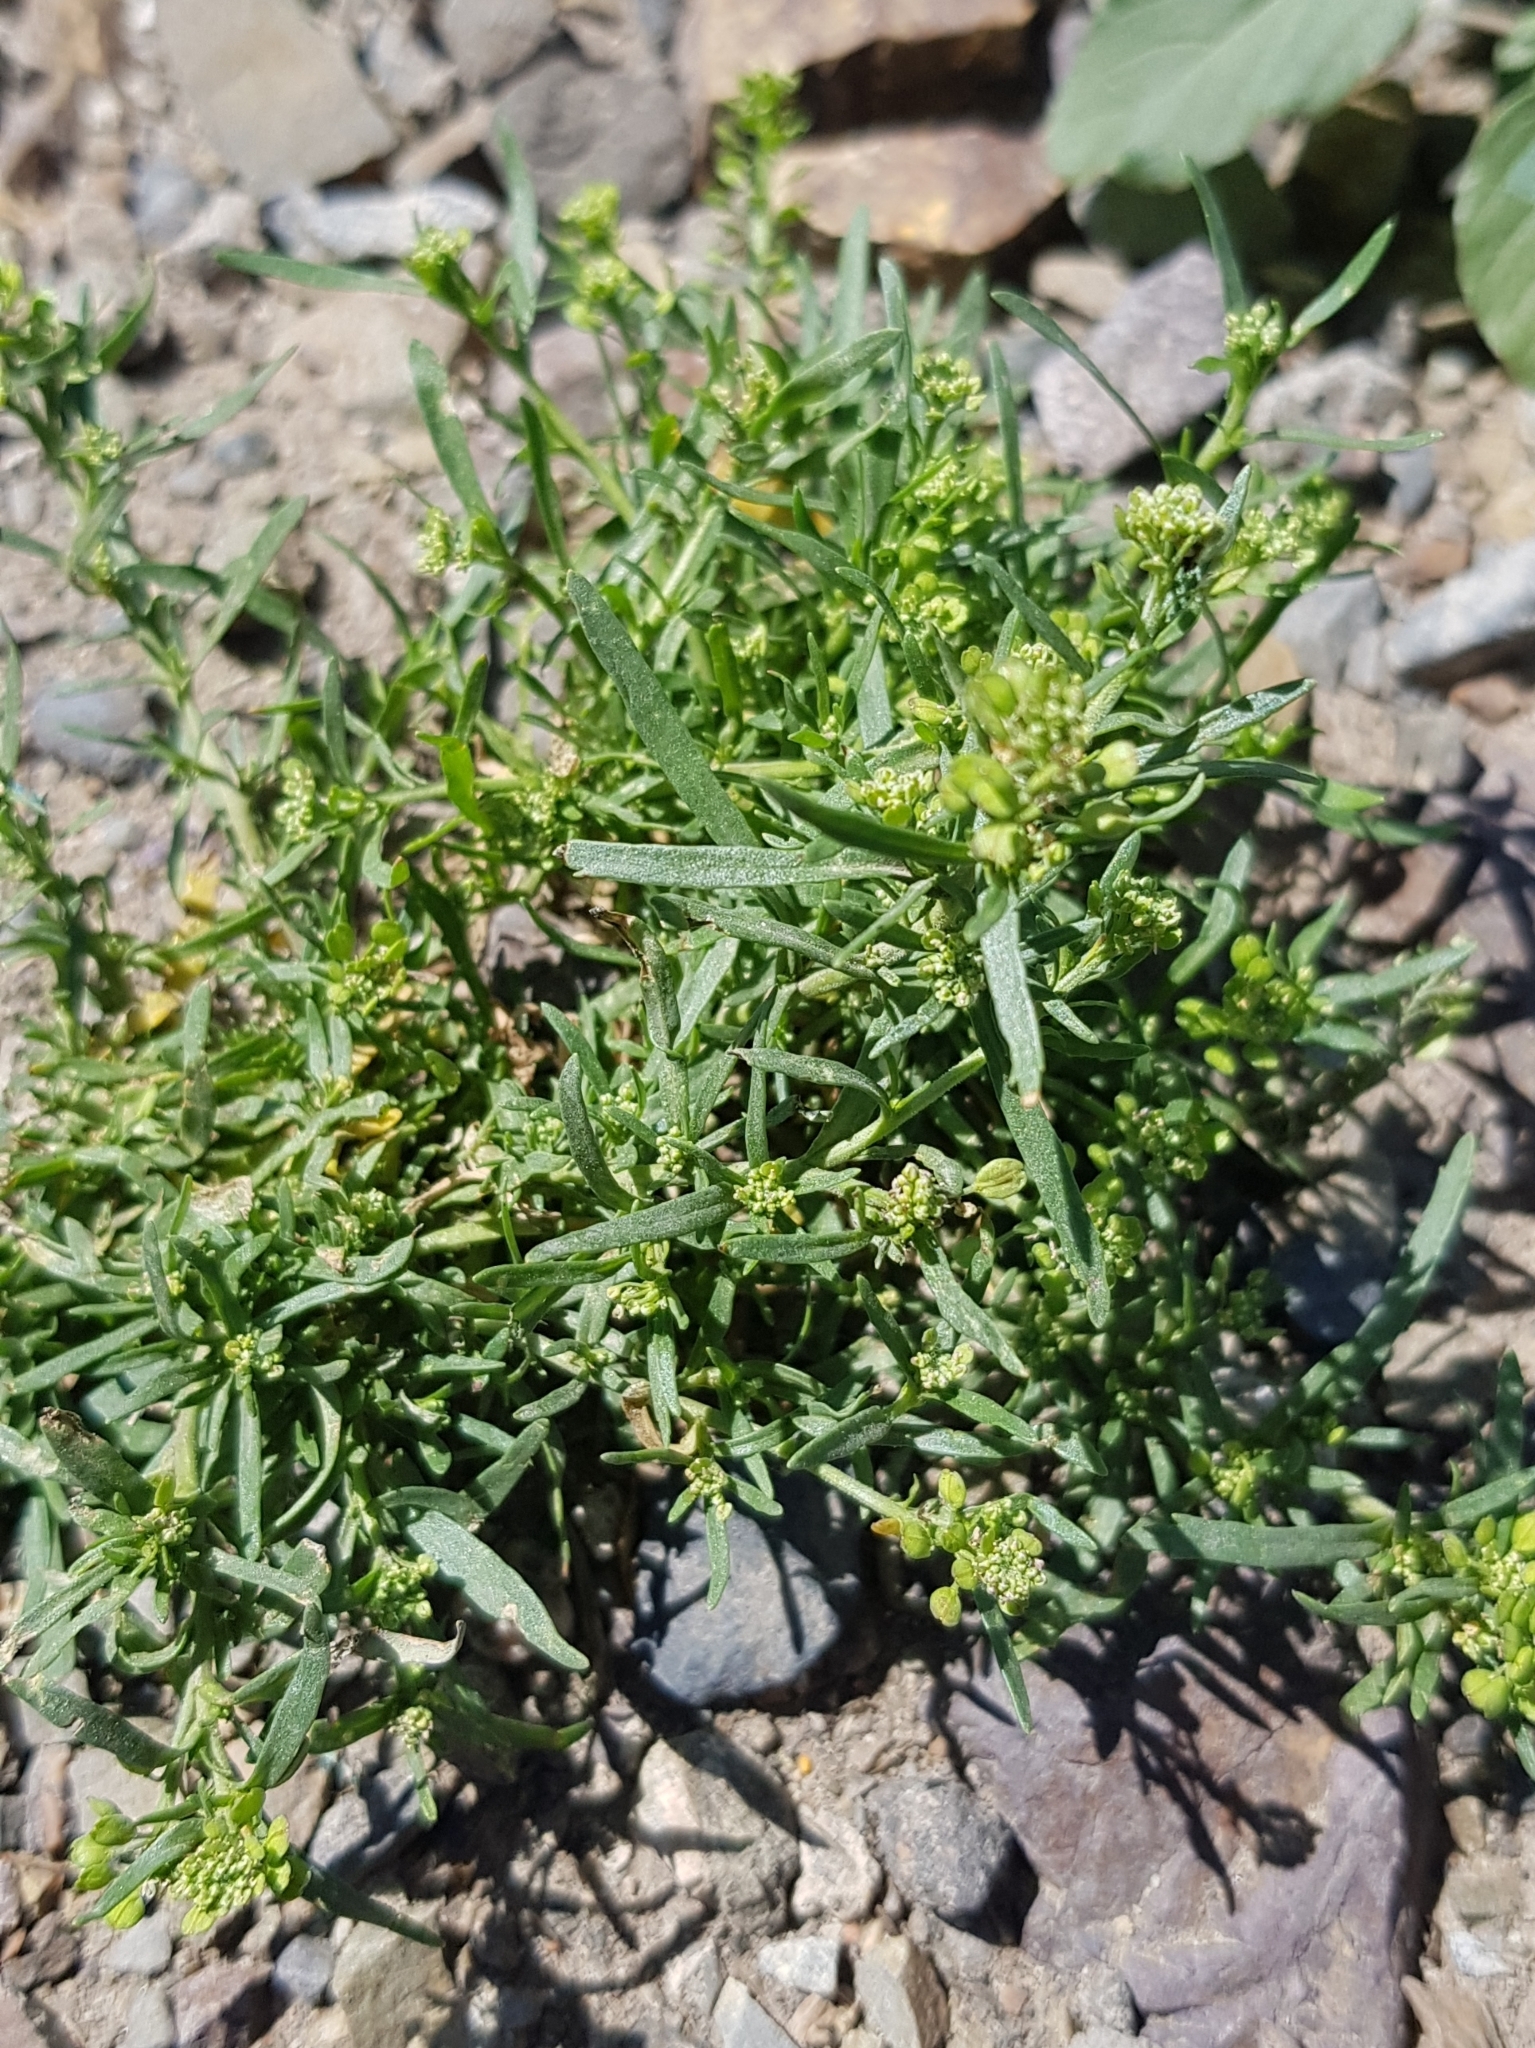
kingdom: Plantae
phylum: Tracheophyta
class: Magnoliopsida
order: Brassicales
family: Brassicaceae
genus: Lepidium
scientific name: Lepidium ruderale
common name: Narrow-leaved pepperwort
